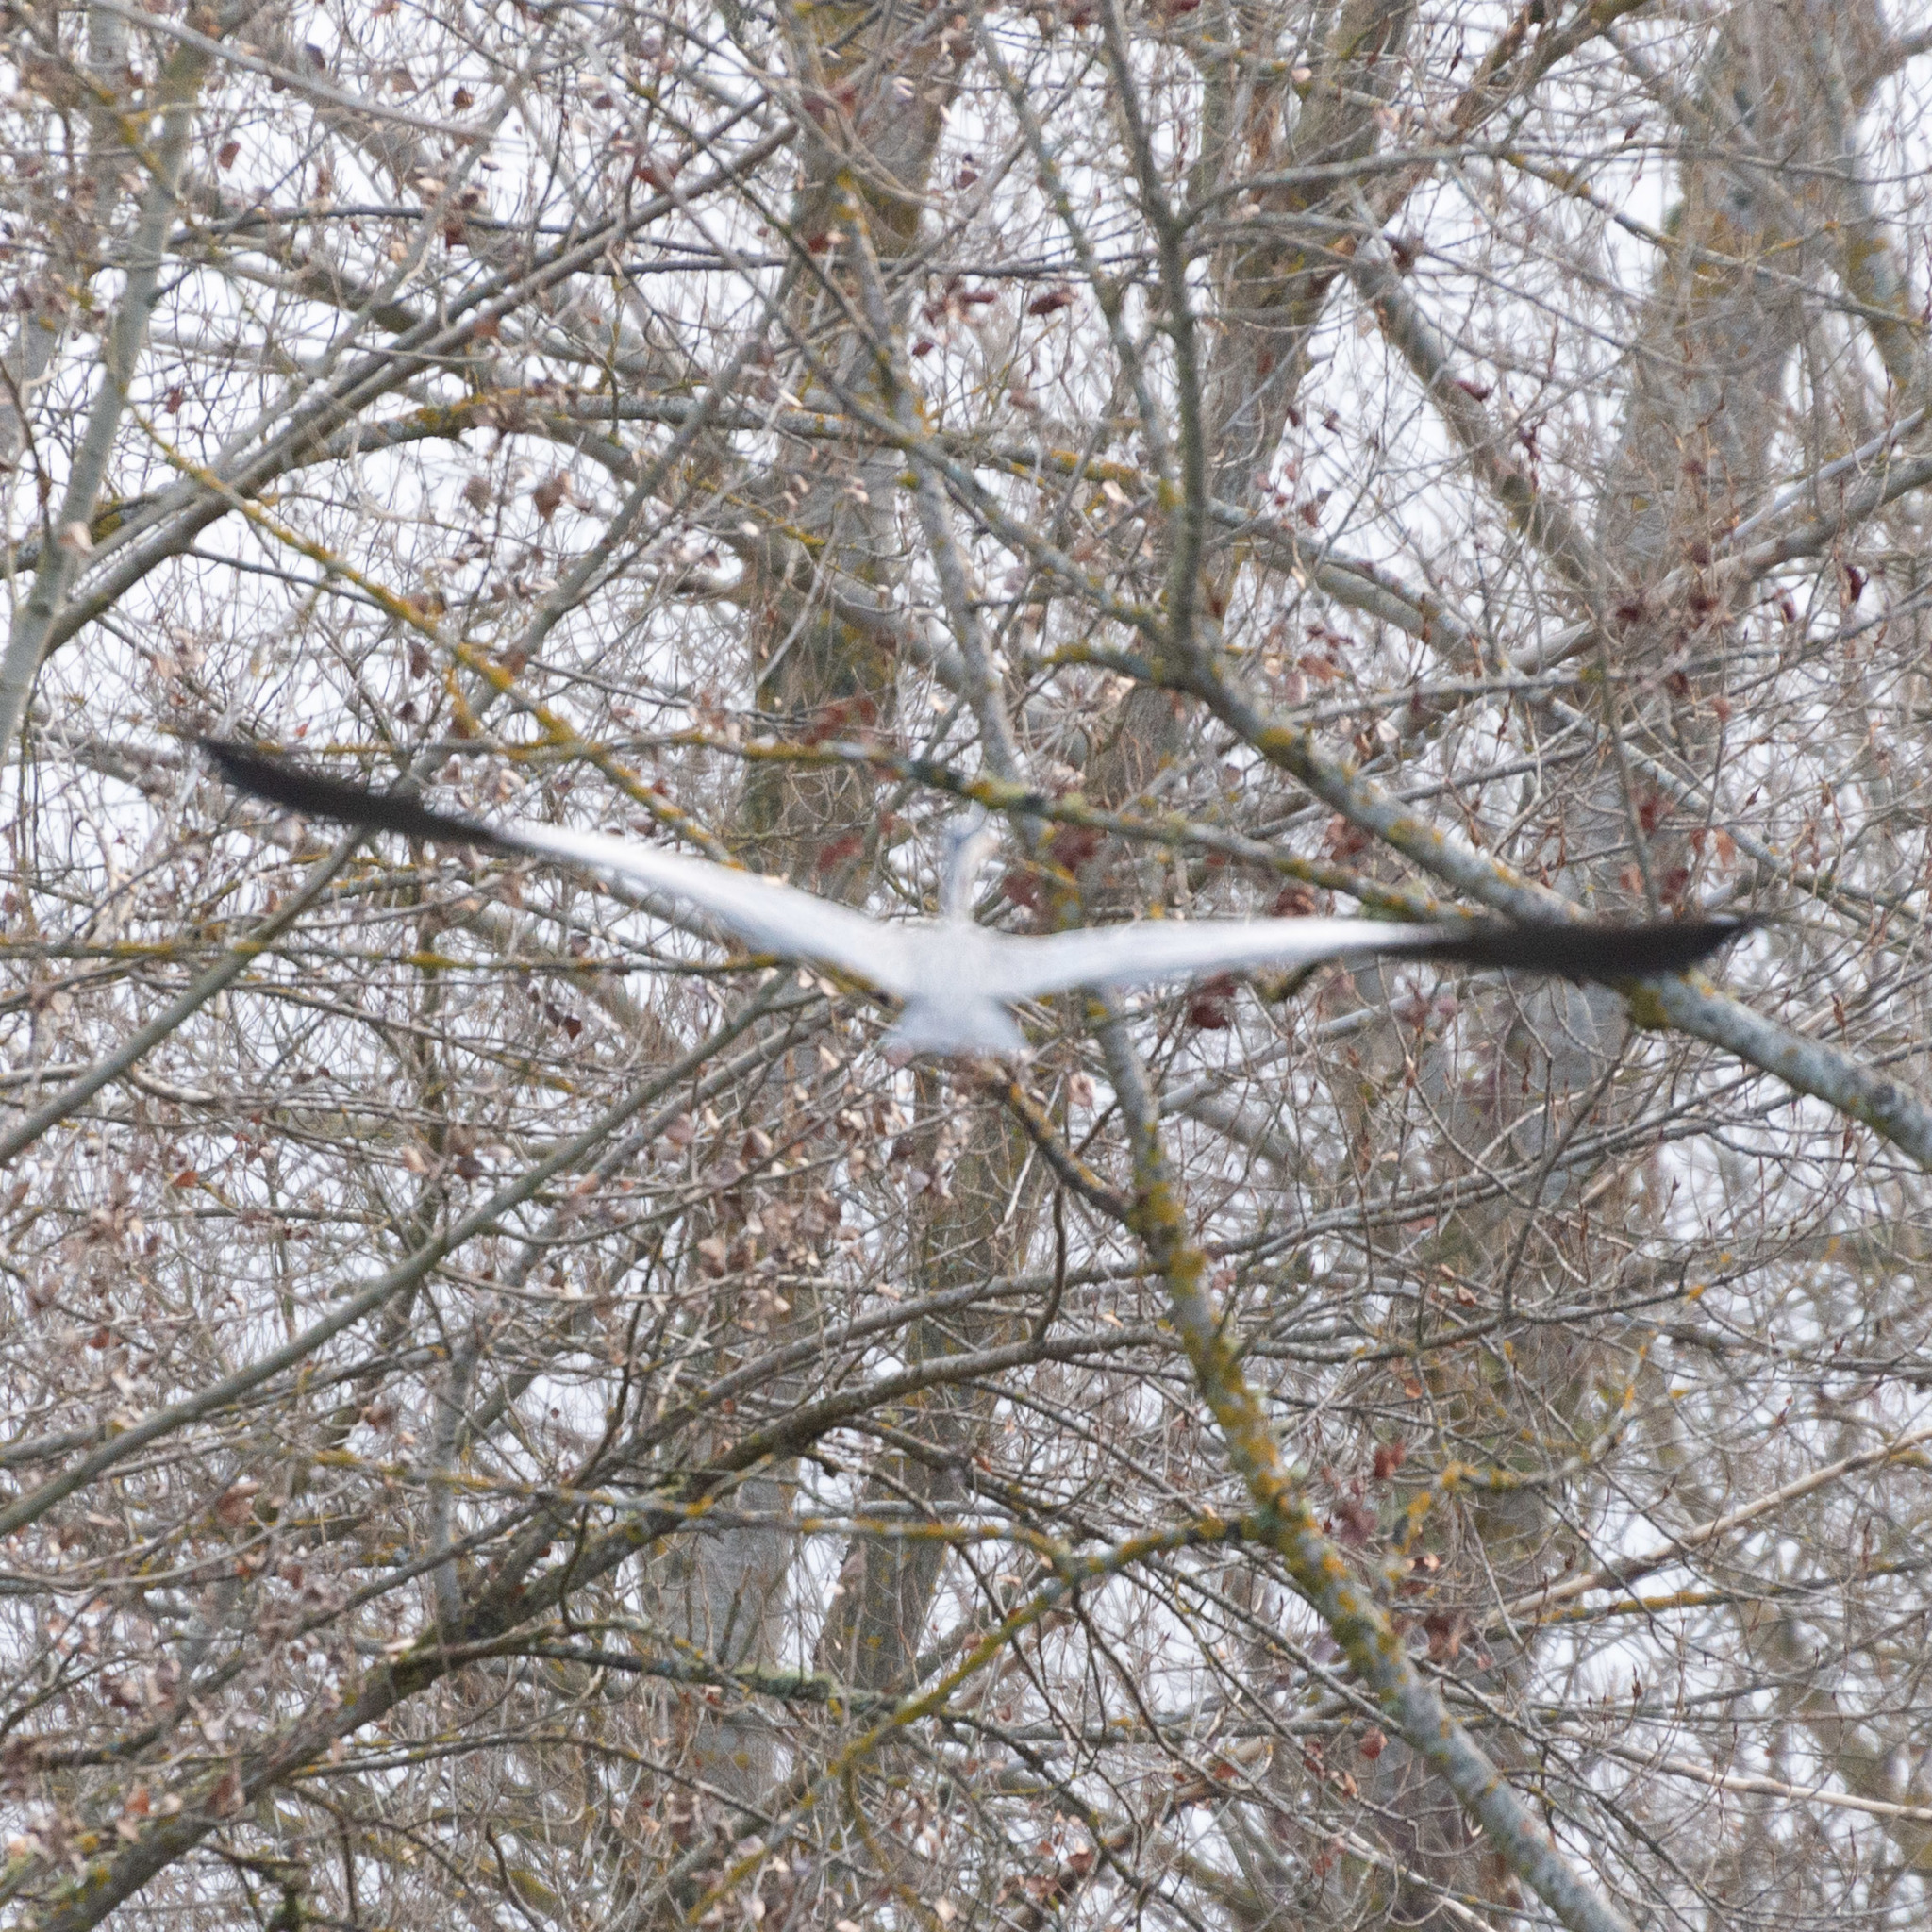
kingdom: Animalia
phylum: Chordata
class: Aves
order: Pelecaniformes
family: Ardeidae
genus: Ardea
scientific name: Ardea cinerea
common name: Grey heron
